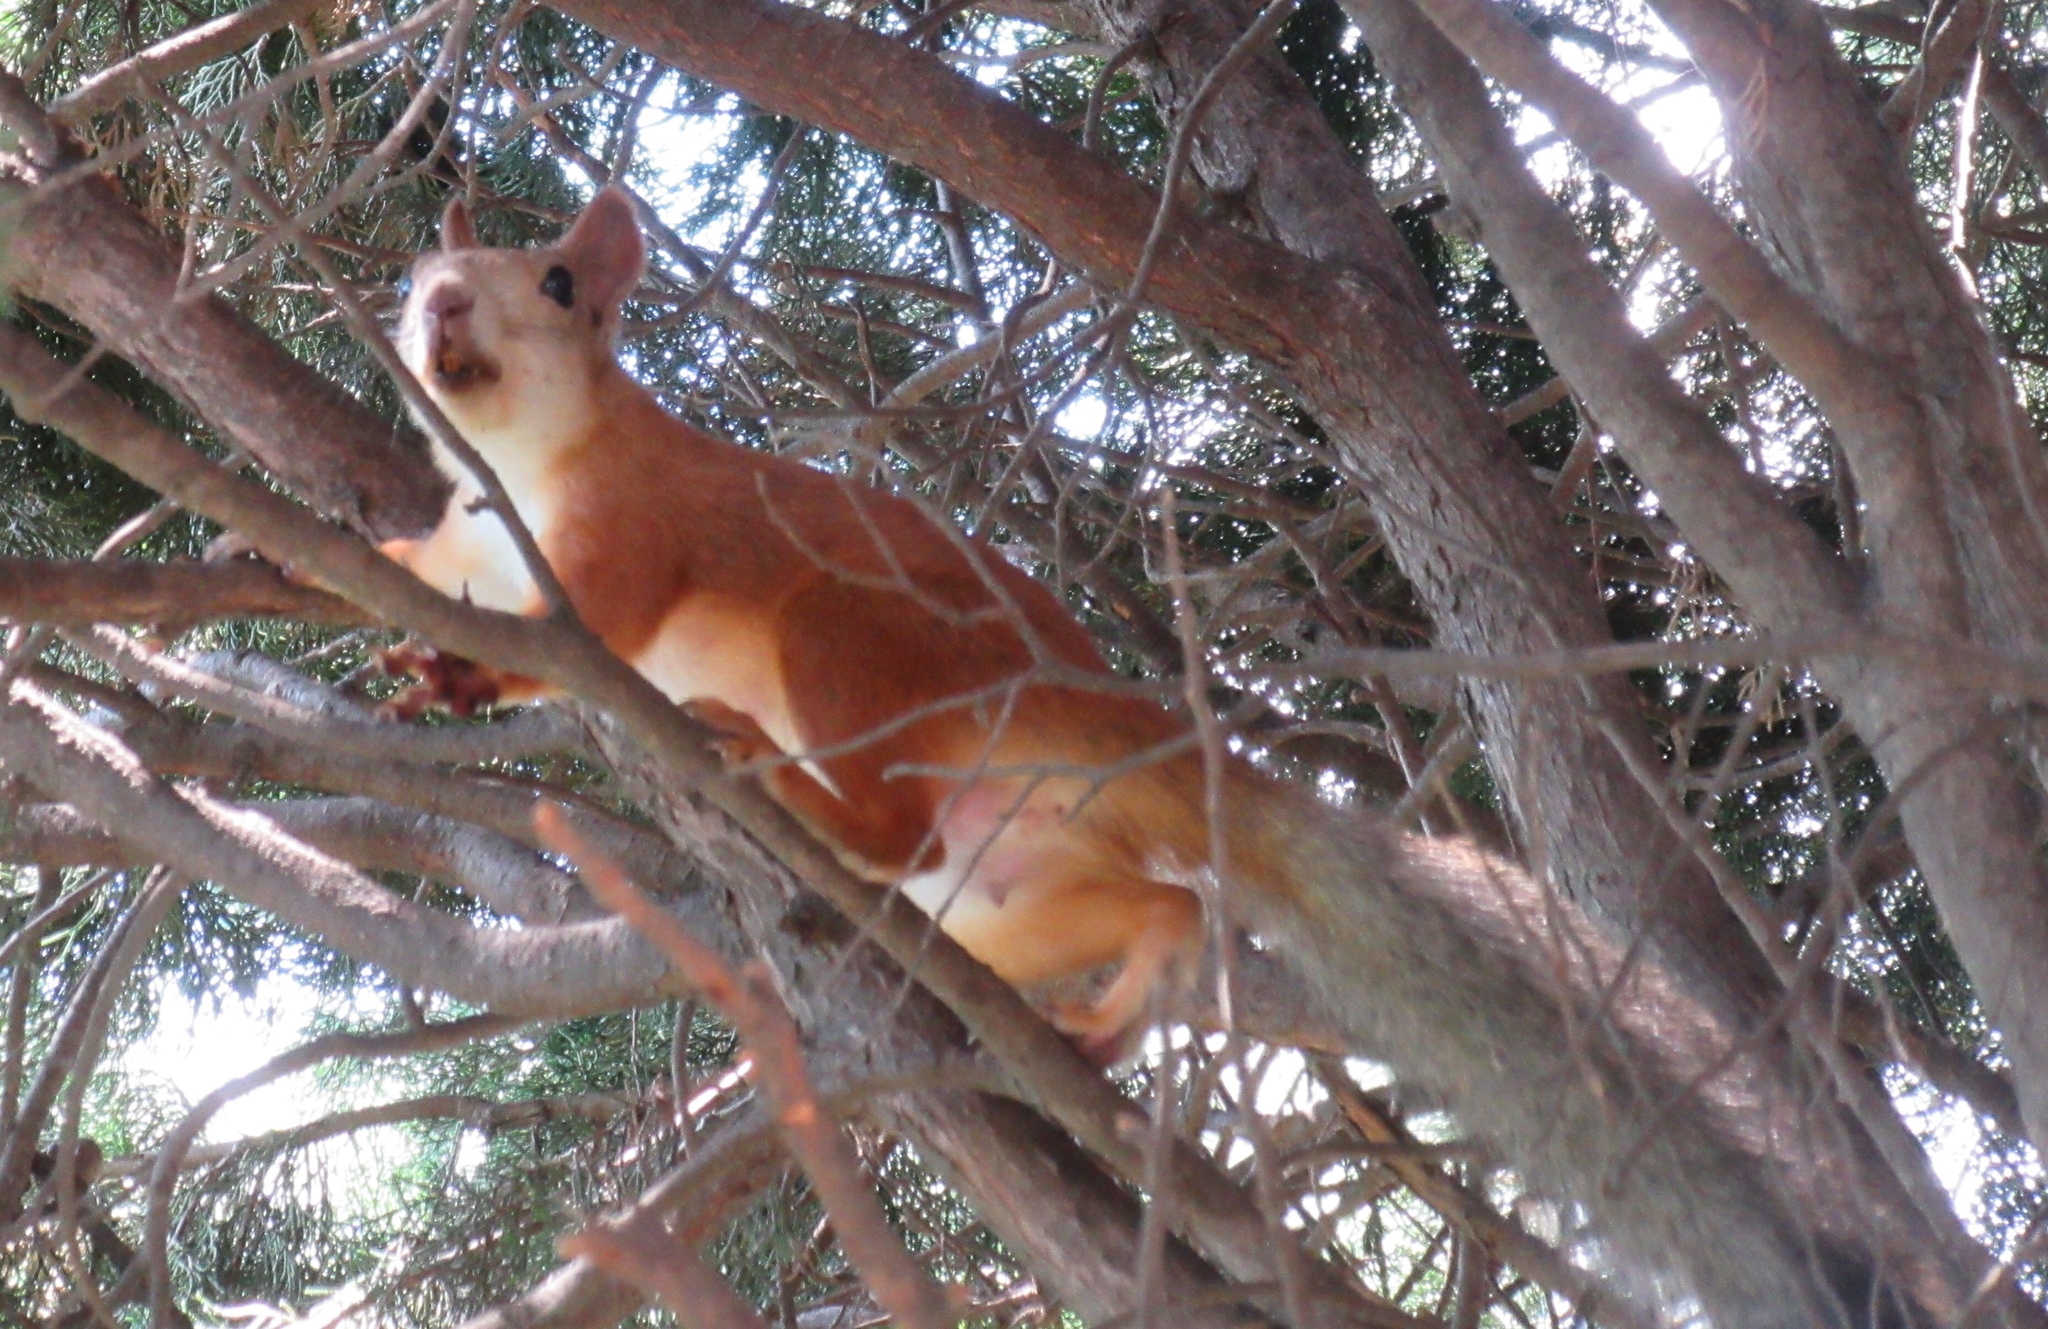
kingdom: Animalia
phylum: Chordata
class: Mammalia
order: Rodentia
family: Sciuridae
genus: Sciurus
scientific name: Sciurus vulgaris
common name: Eurasian red squirrel
